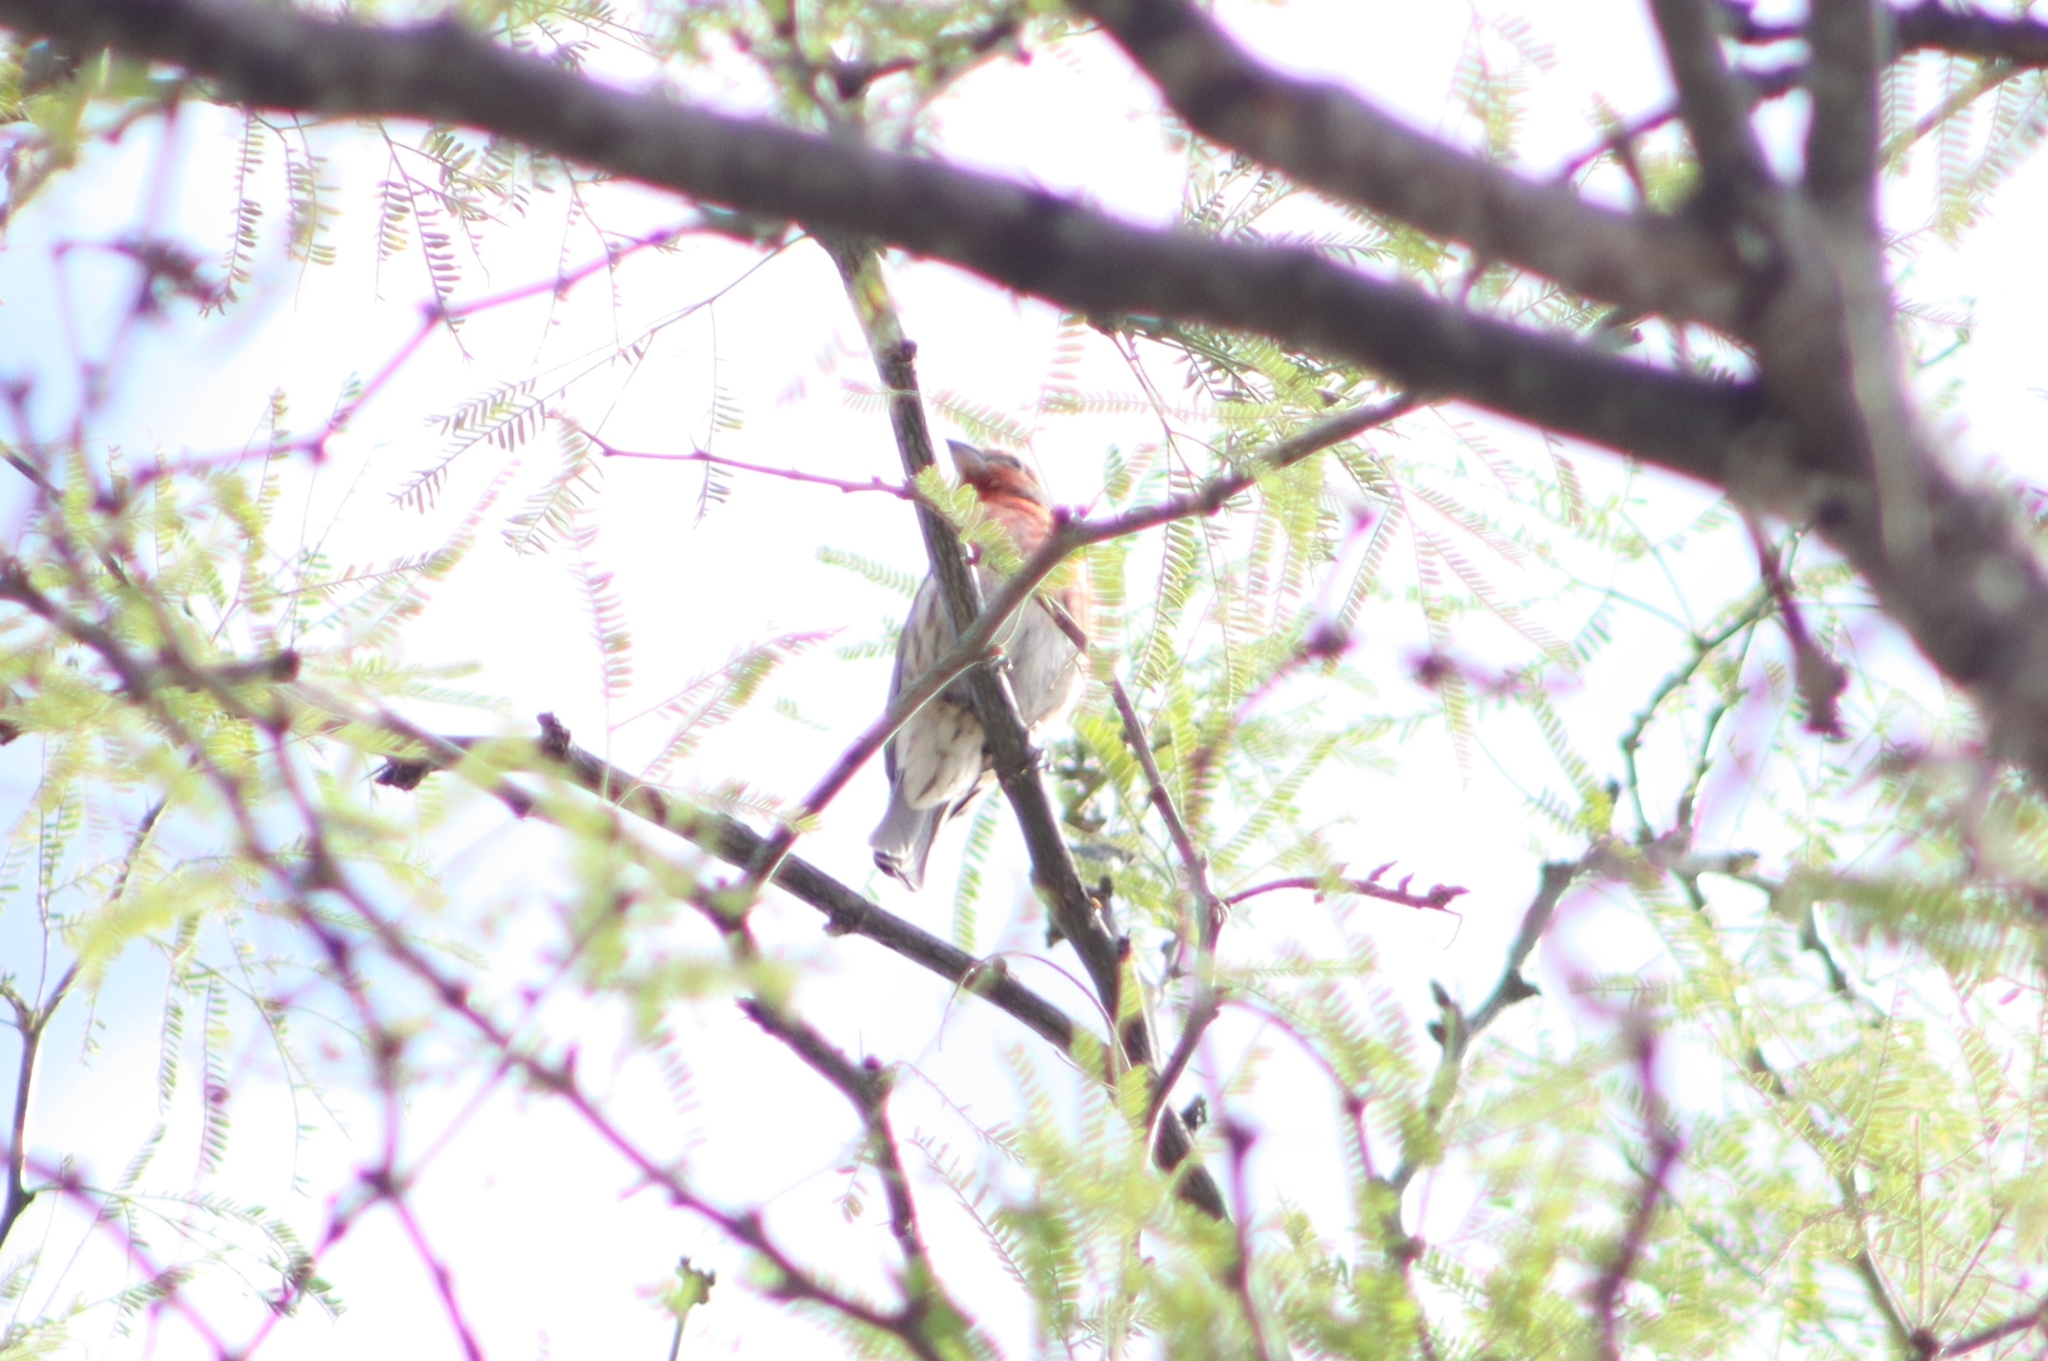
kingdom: Animalia
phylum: Chordata
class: Aves
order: Passeriformes
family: Fringillidae
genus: Haemorhous
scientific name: Haemorhous mexicanus
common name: House finch
